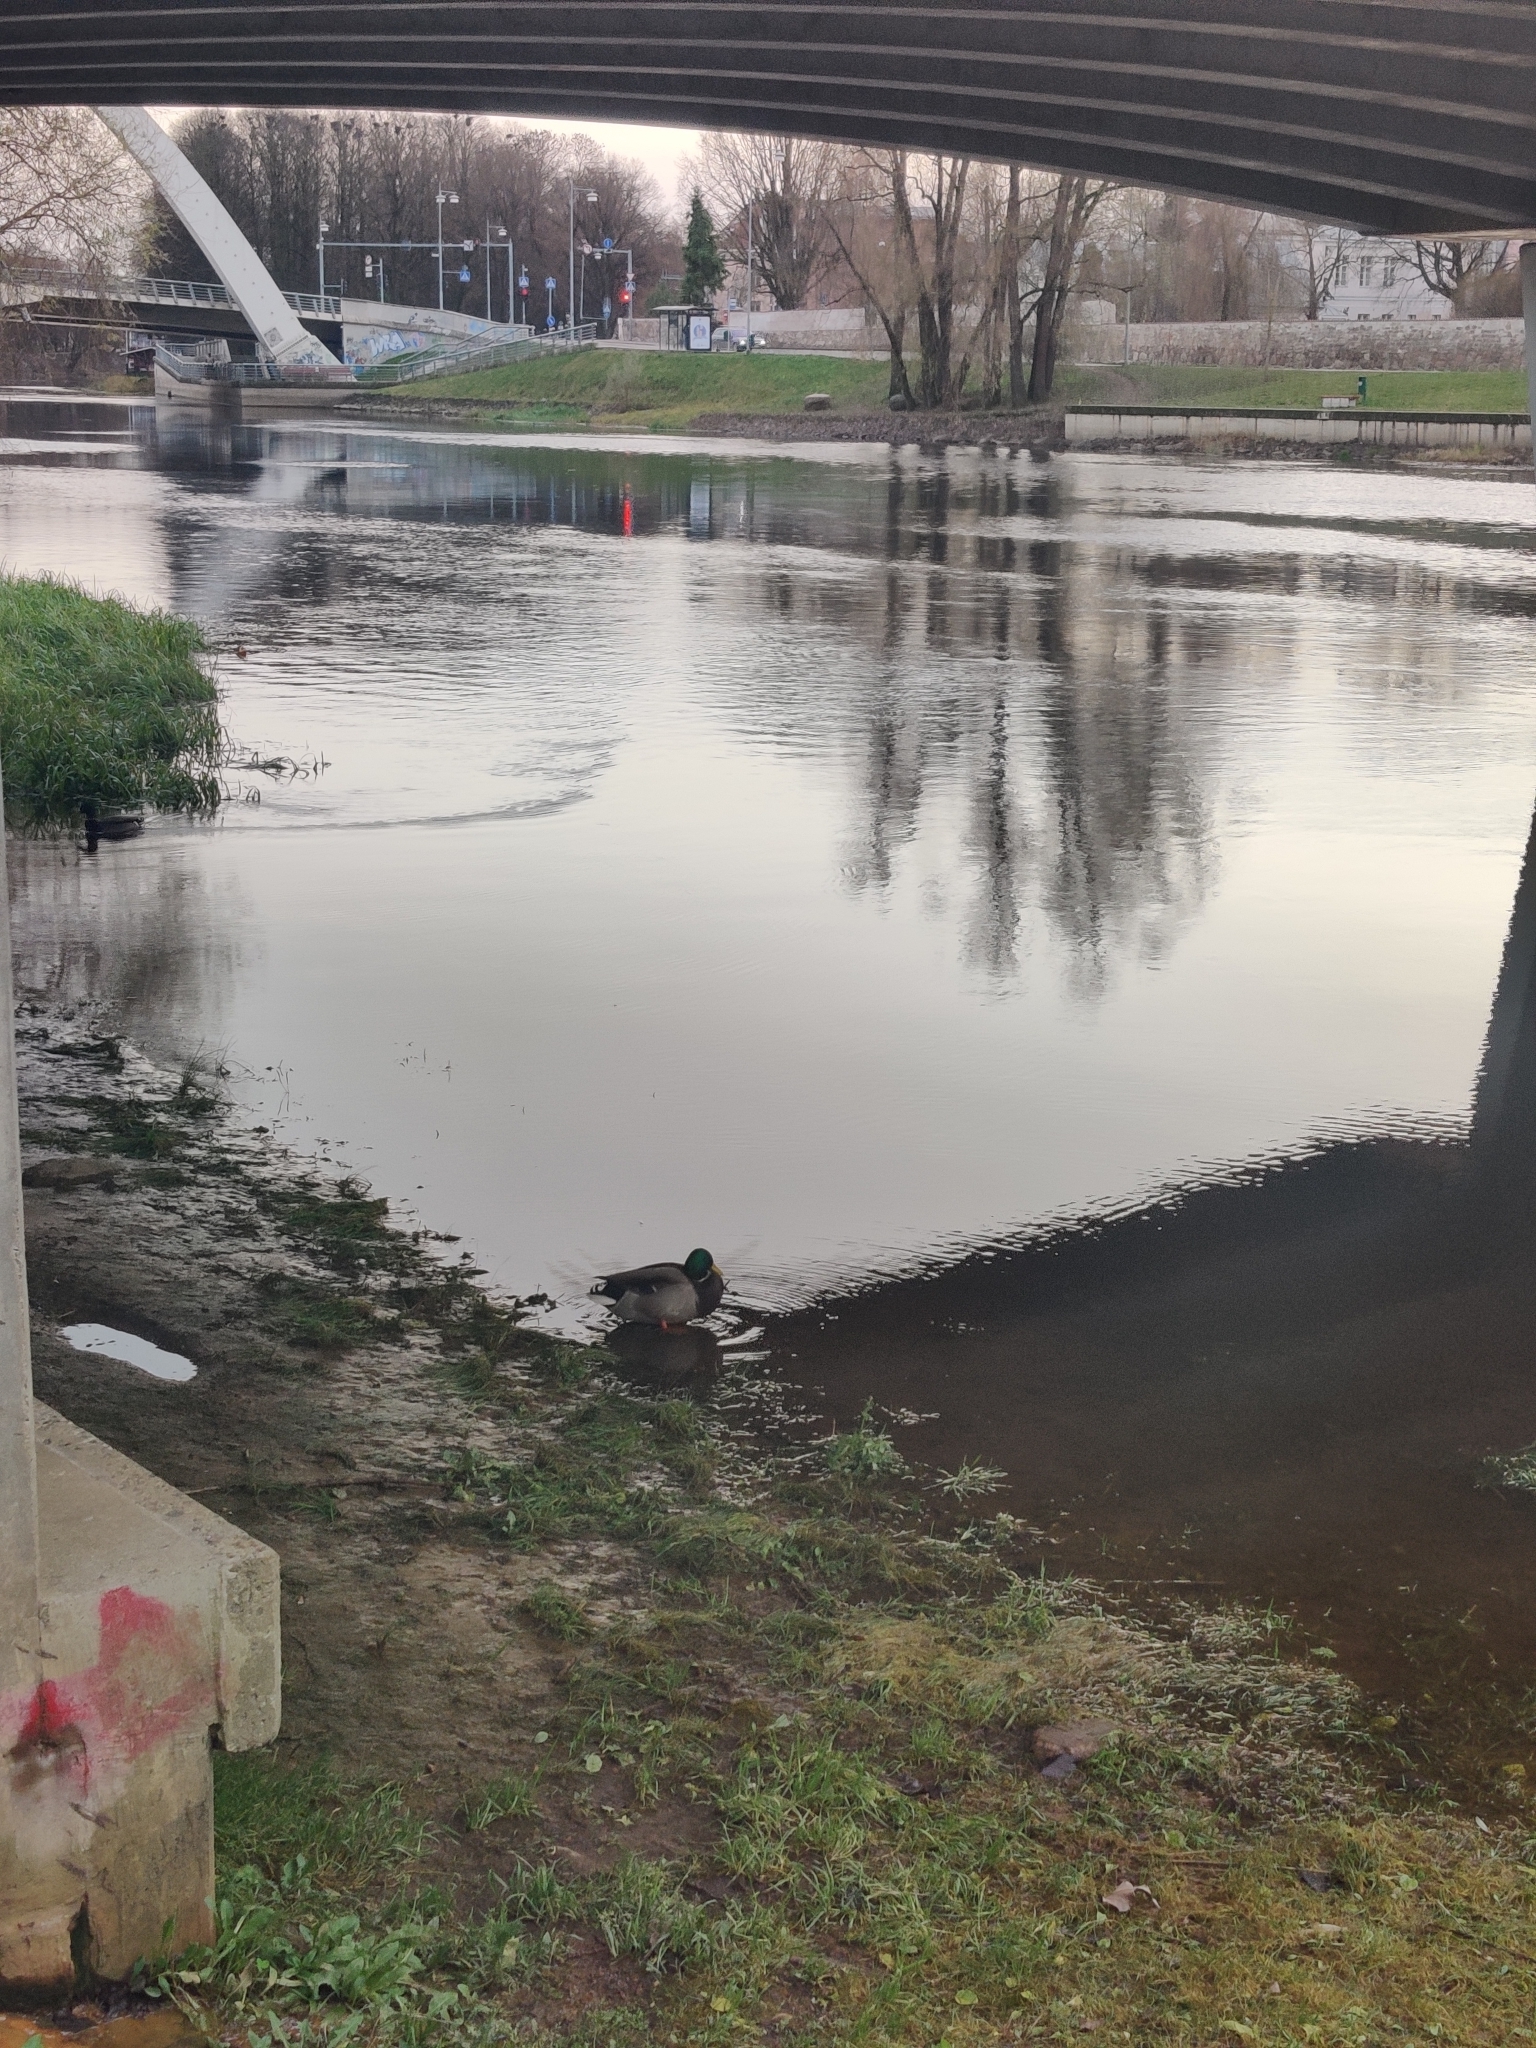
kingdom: Animalia
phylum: Chordata
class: Aves
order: Anseriformes
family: Anatidae
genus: Anas
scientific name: Anas platyrhynchos
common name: Mallard
